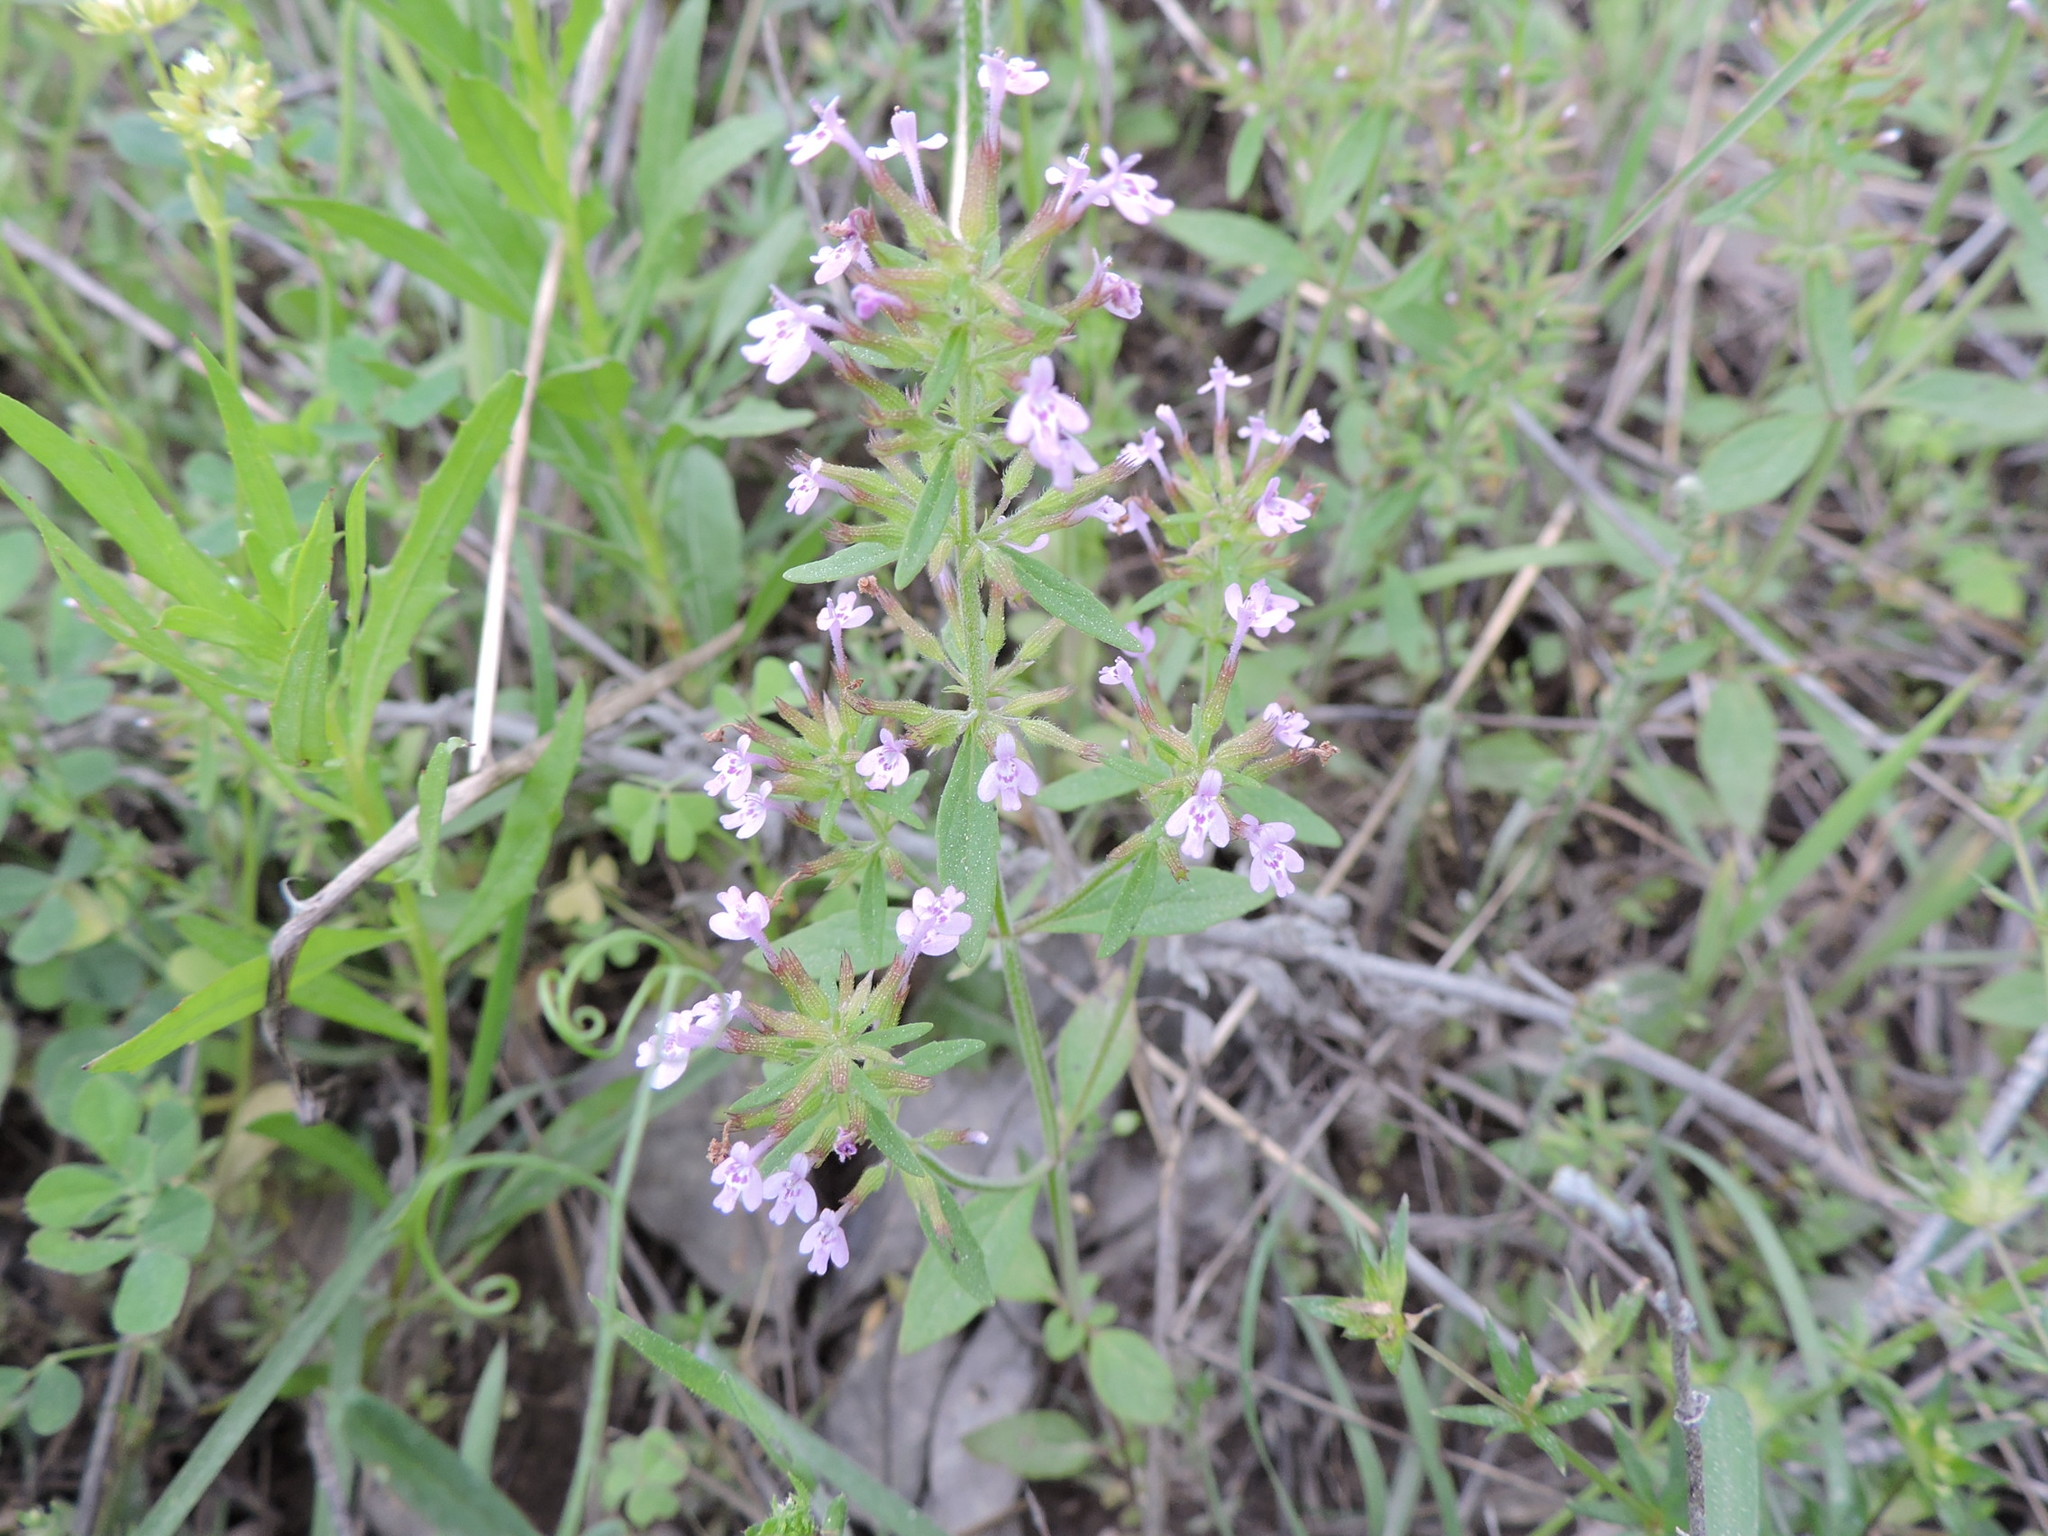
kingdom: Plantae
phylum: Tracheophyta
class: Magnoliopsida
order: Lamiales
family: Lamiaceae
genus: Hedeoma
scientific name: Hedeoma acinoides
